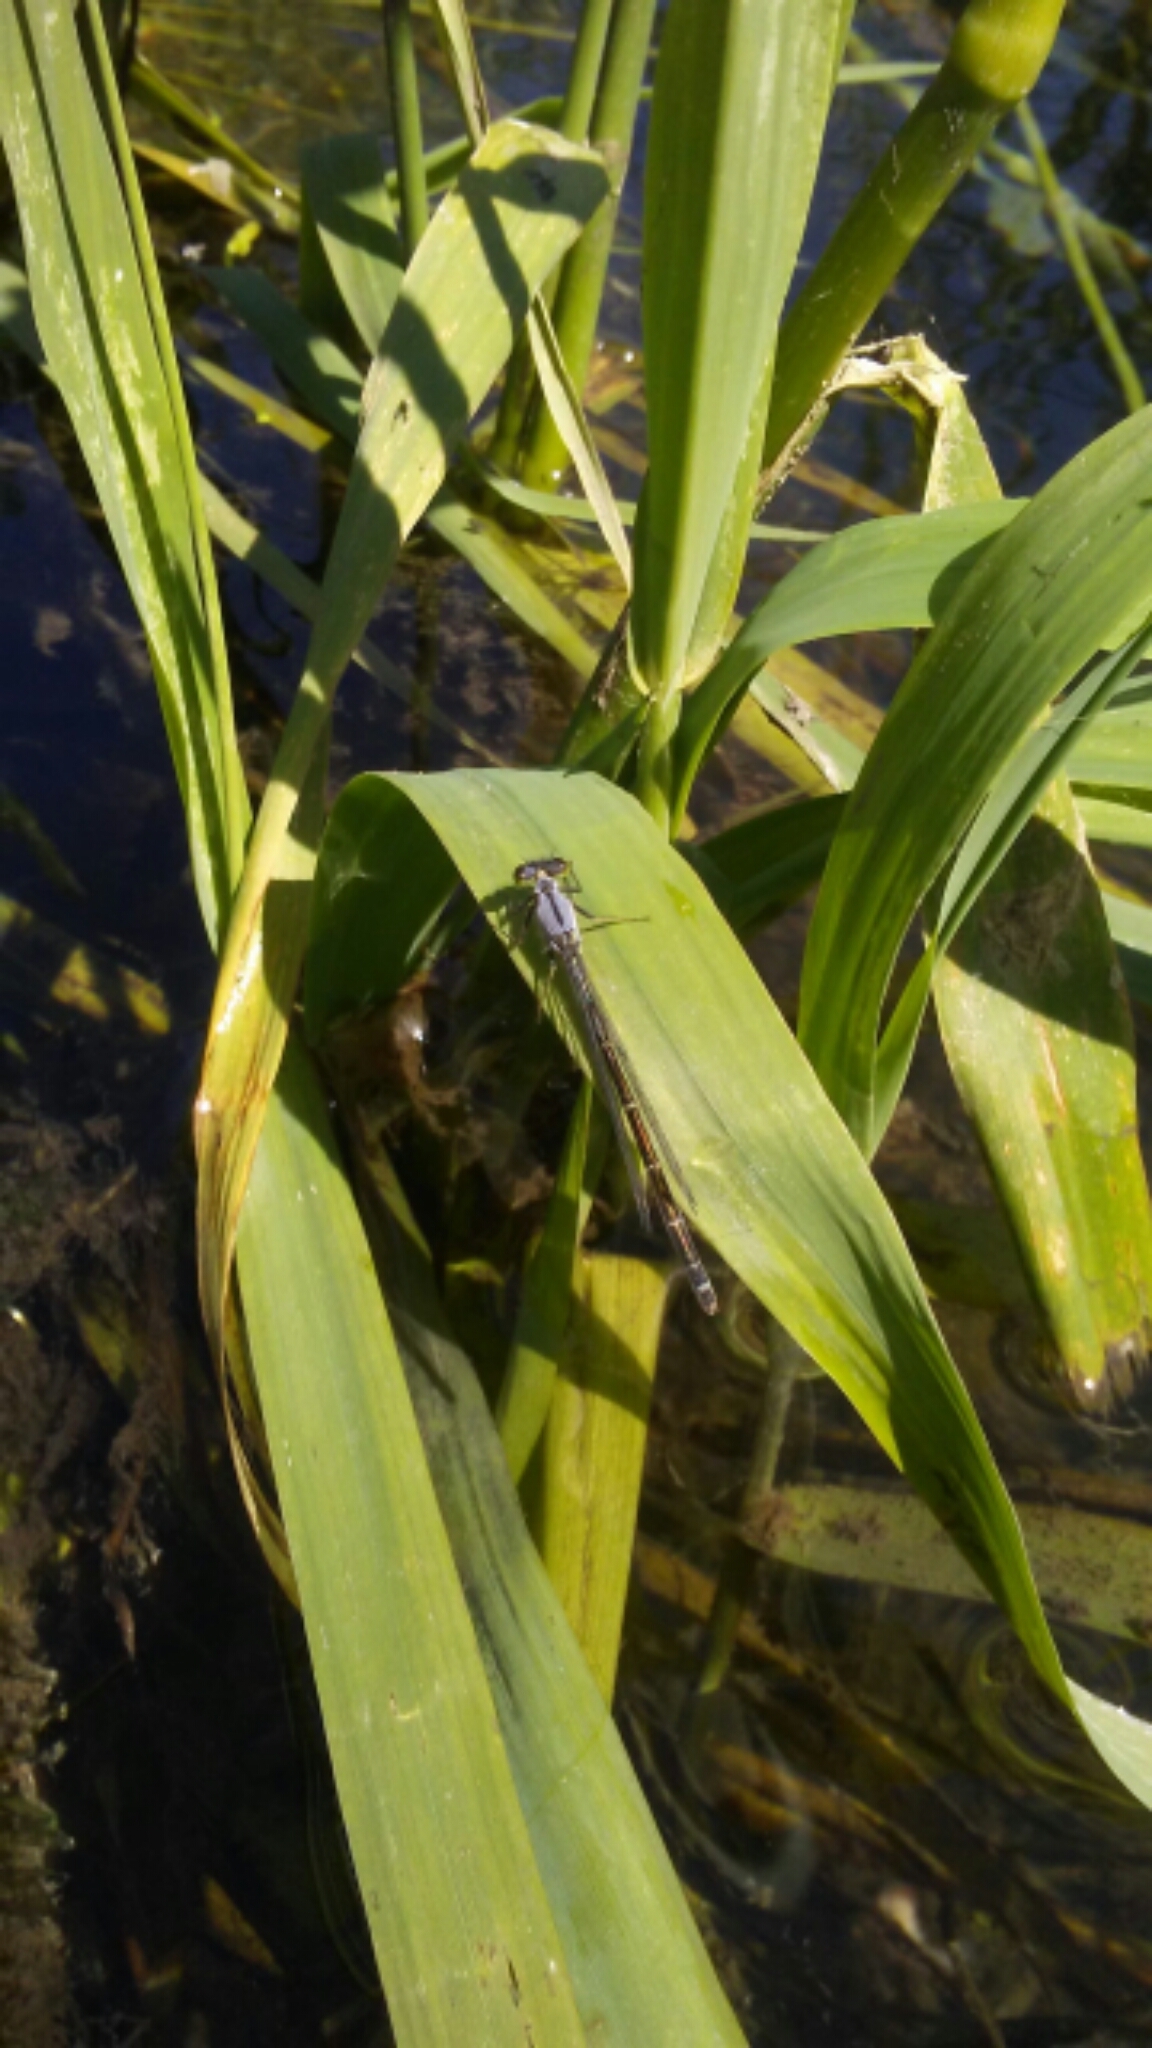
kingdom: Animalia
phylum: Arthropoda
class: Insecta
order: Odonata
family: Coenagrionidae
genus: Ischnura
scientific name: Ischnura cervula
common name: Pacific forktail
